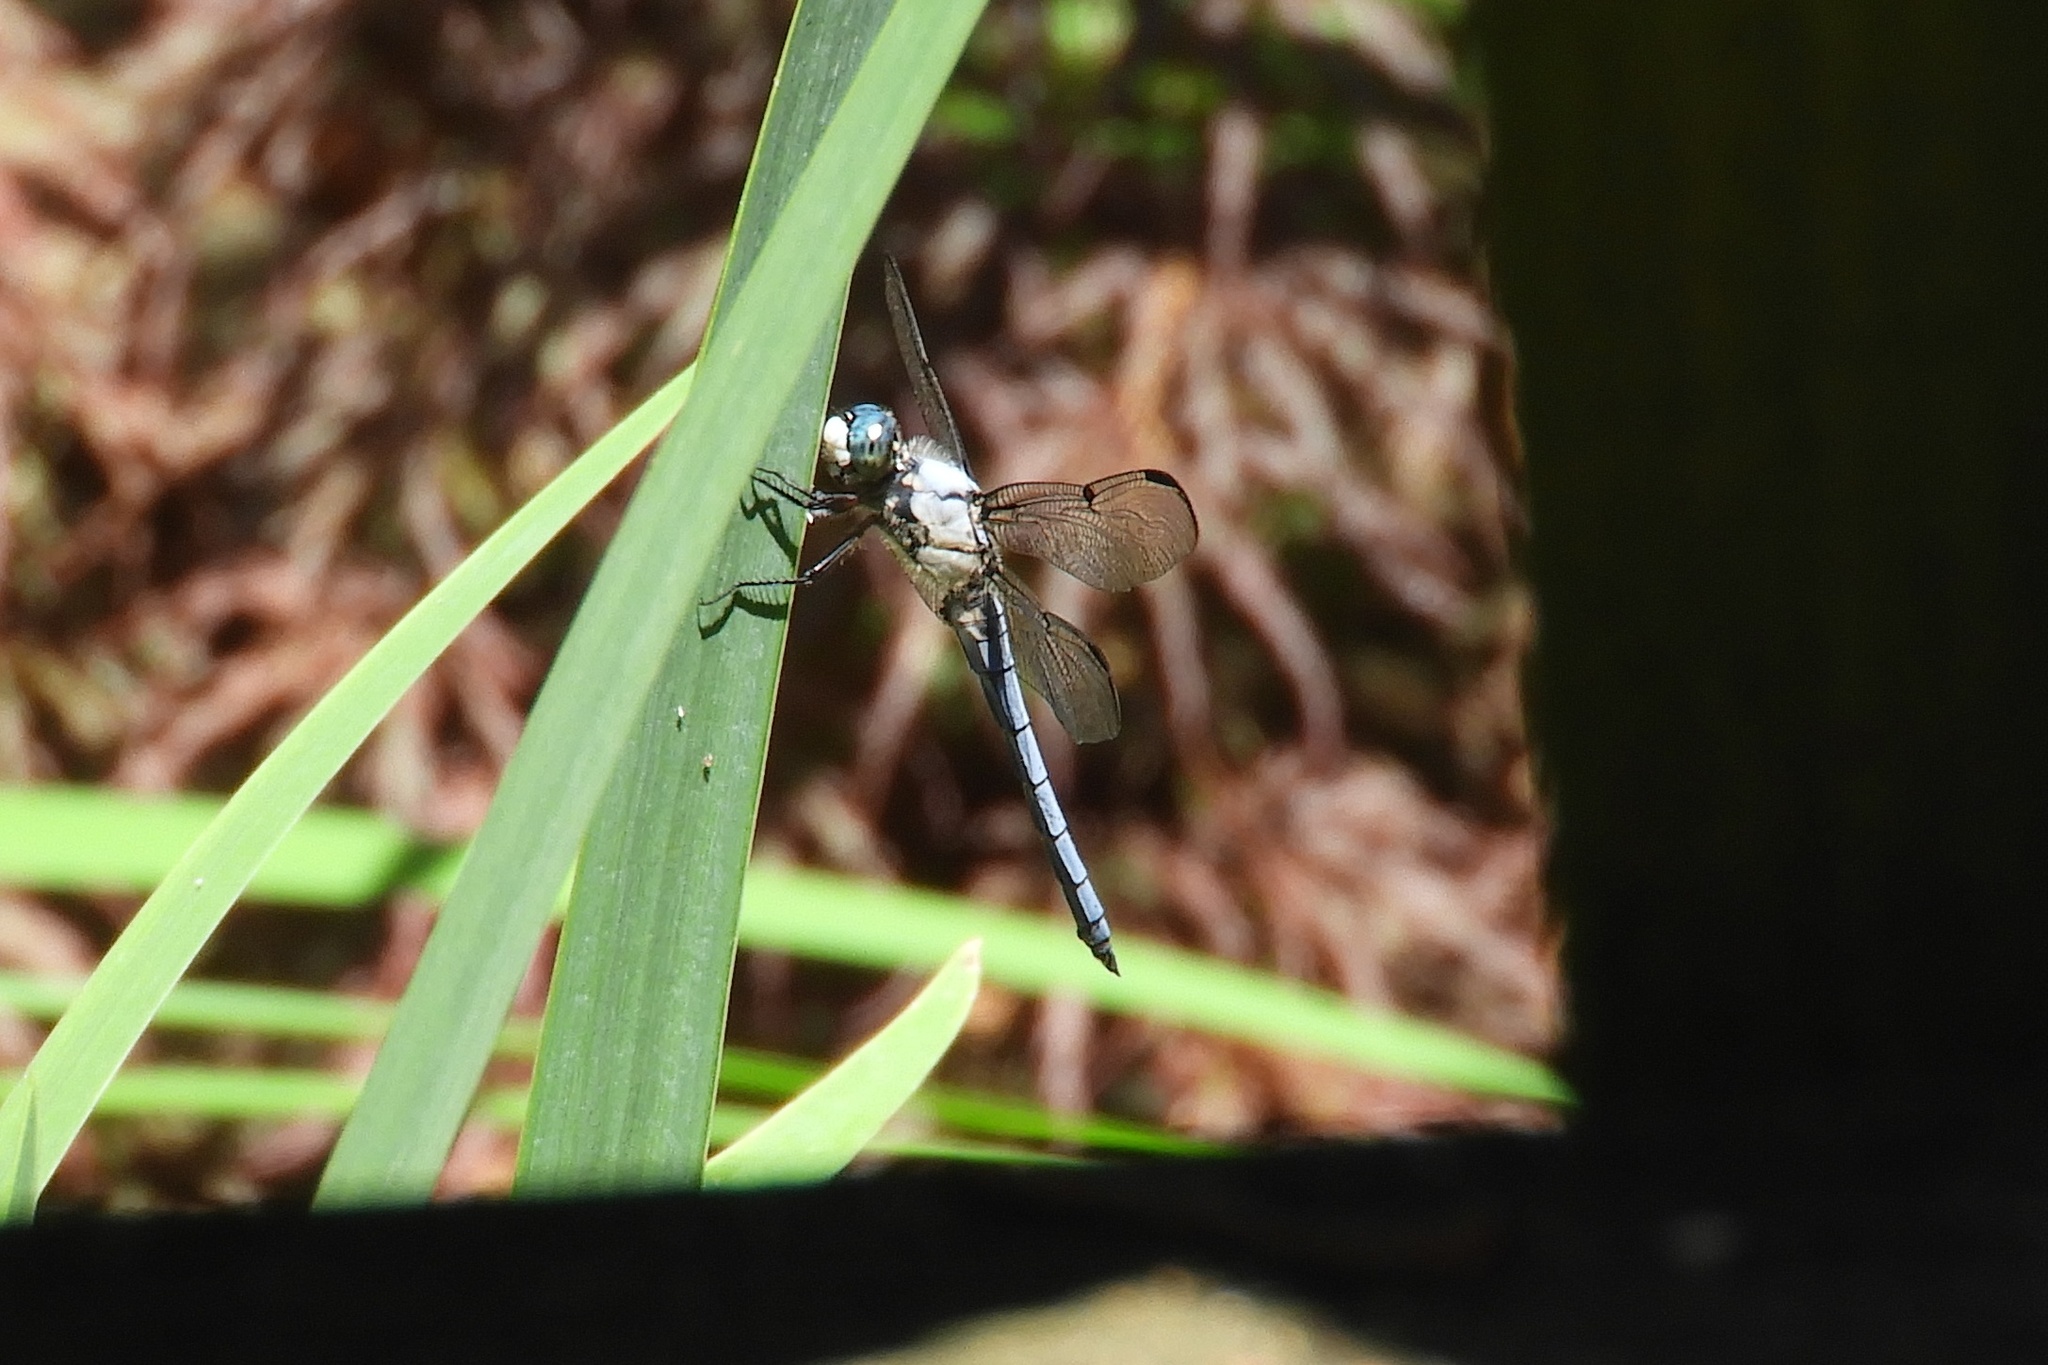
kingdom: Animalia
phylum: Arthropoda
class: Insecta
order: Odonata
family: Libellulidae
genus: Libellula
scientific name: Libellula vibrans
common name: Great blue skimmer
